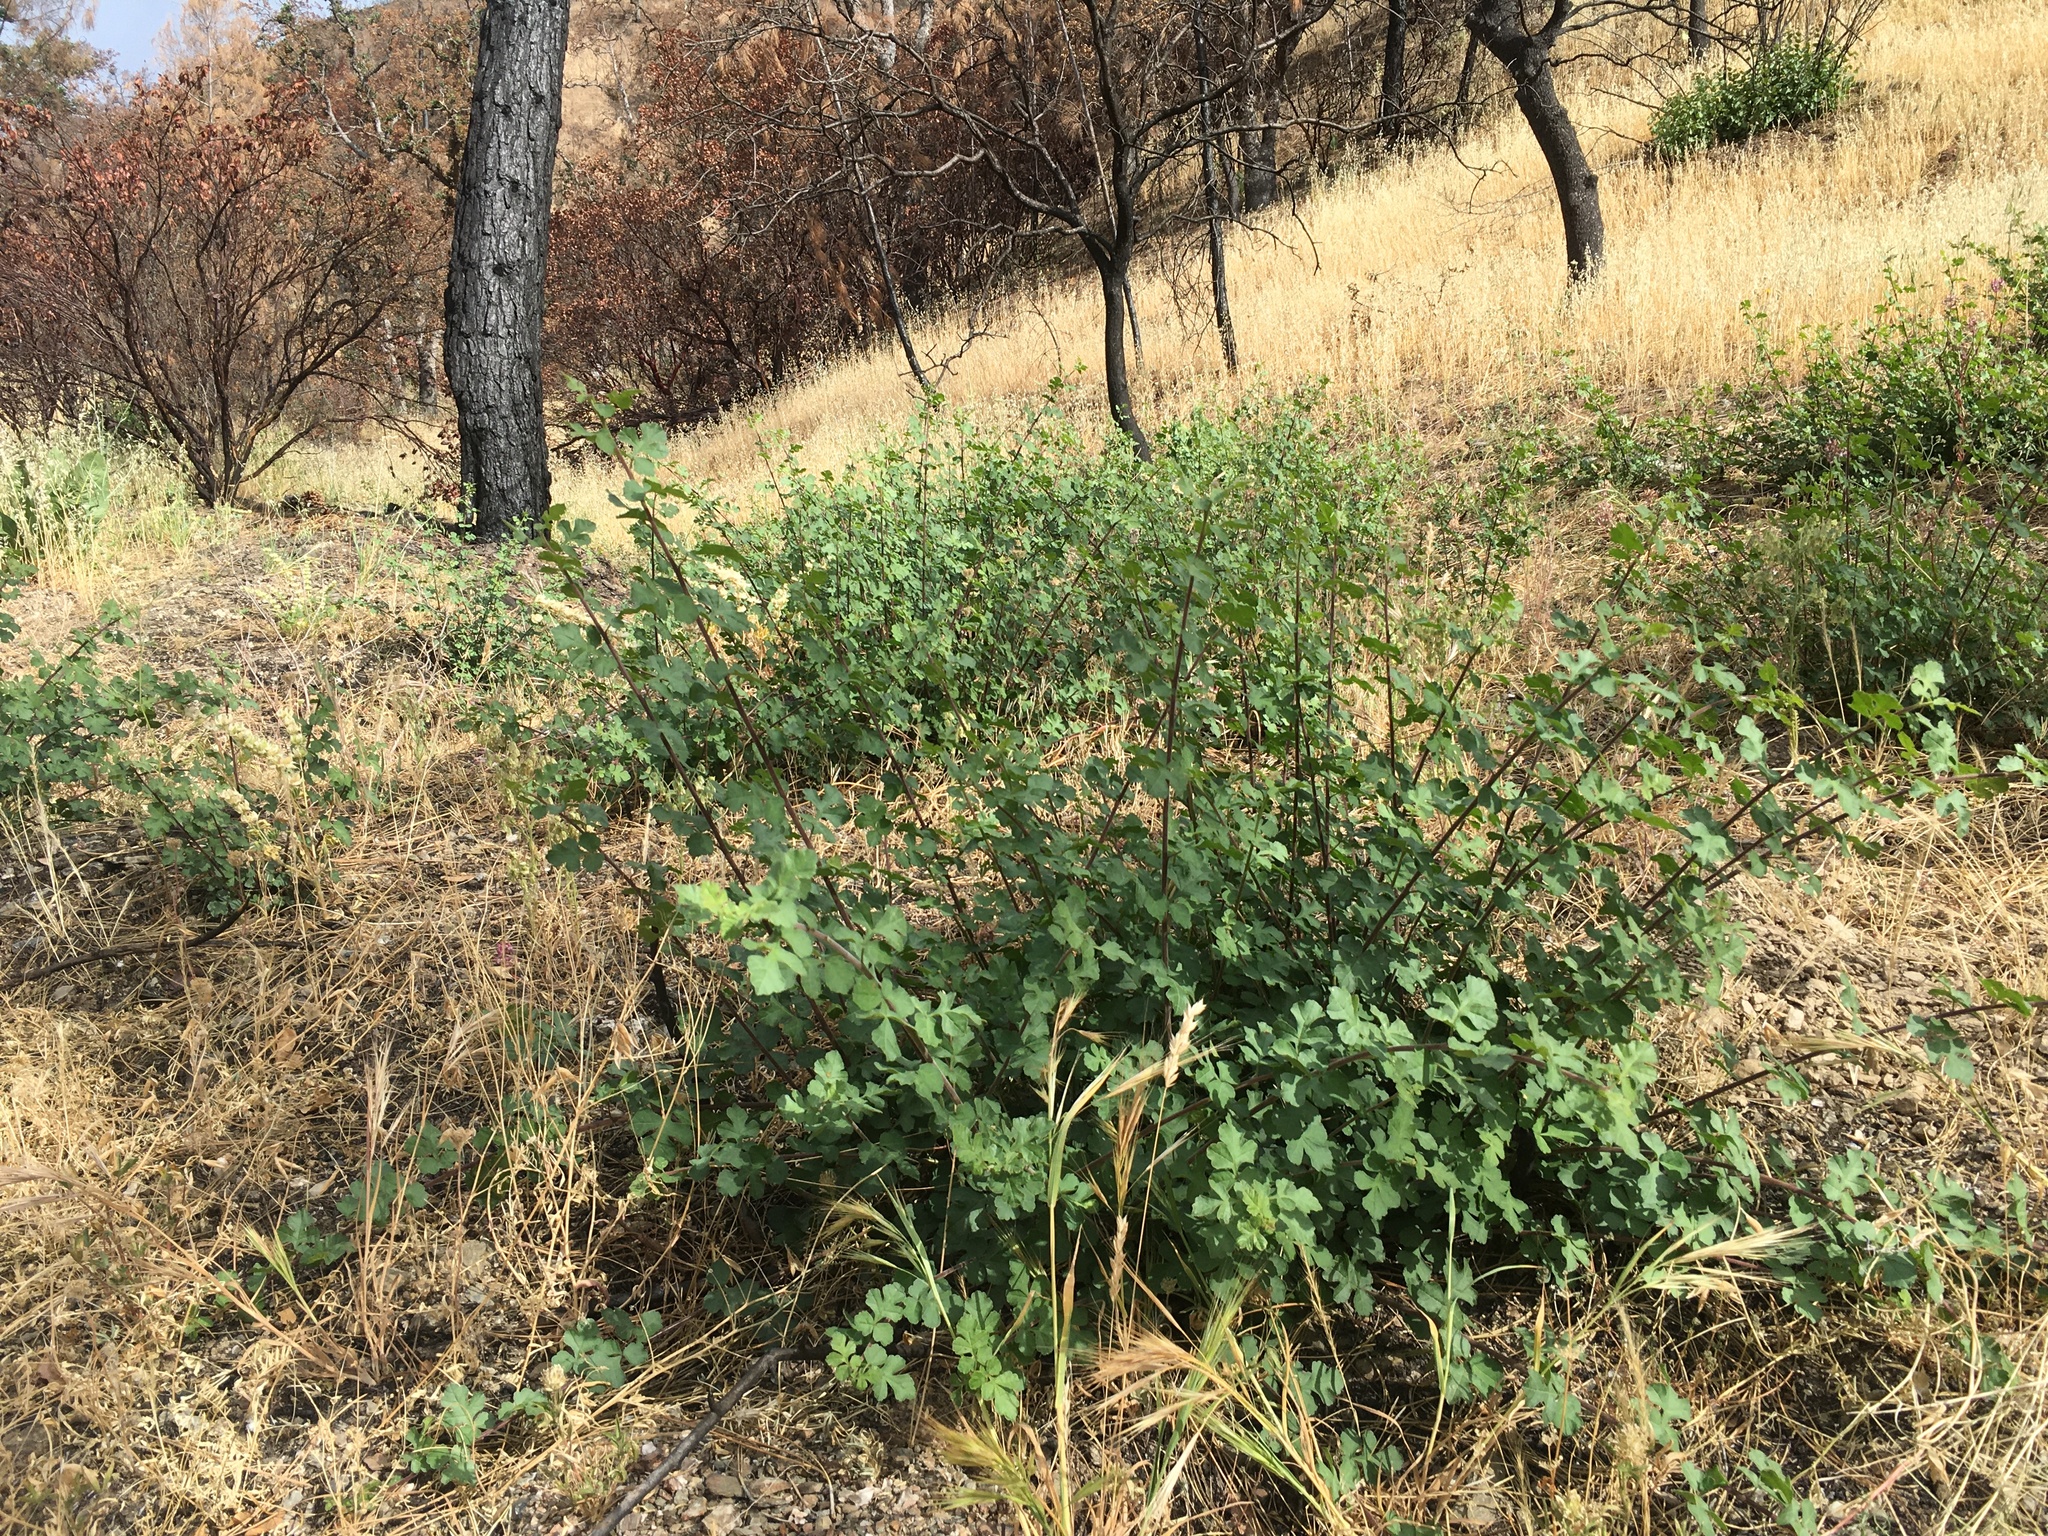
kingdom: Plantae
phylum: Tracheophyta
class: Magnoliopsida
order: Sapindales
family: Anacardiaceae
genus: Rhus
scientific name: Rhus aromatica
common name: Aromatic sumac
